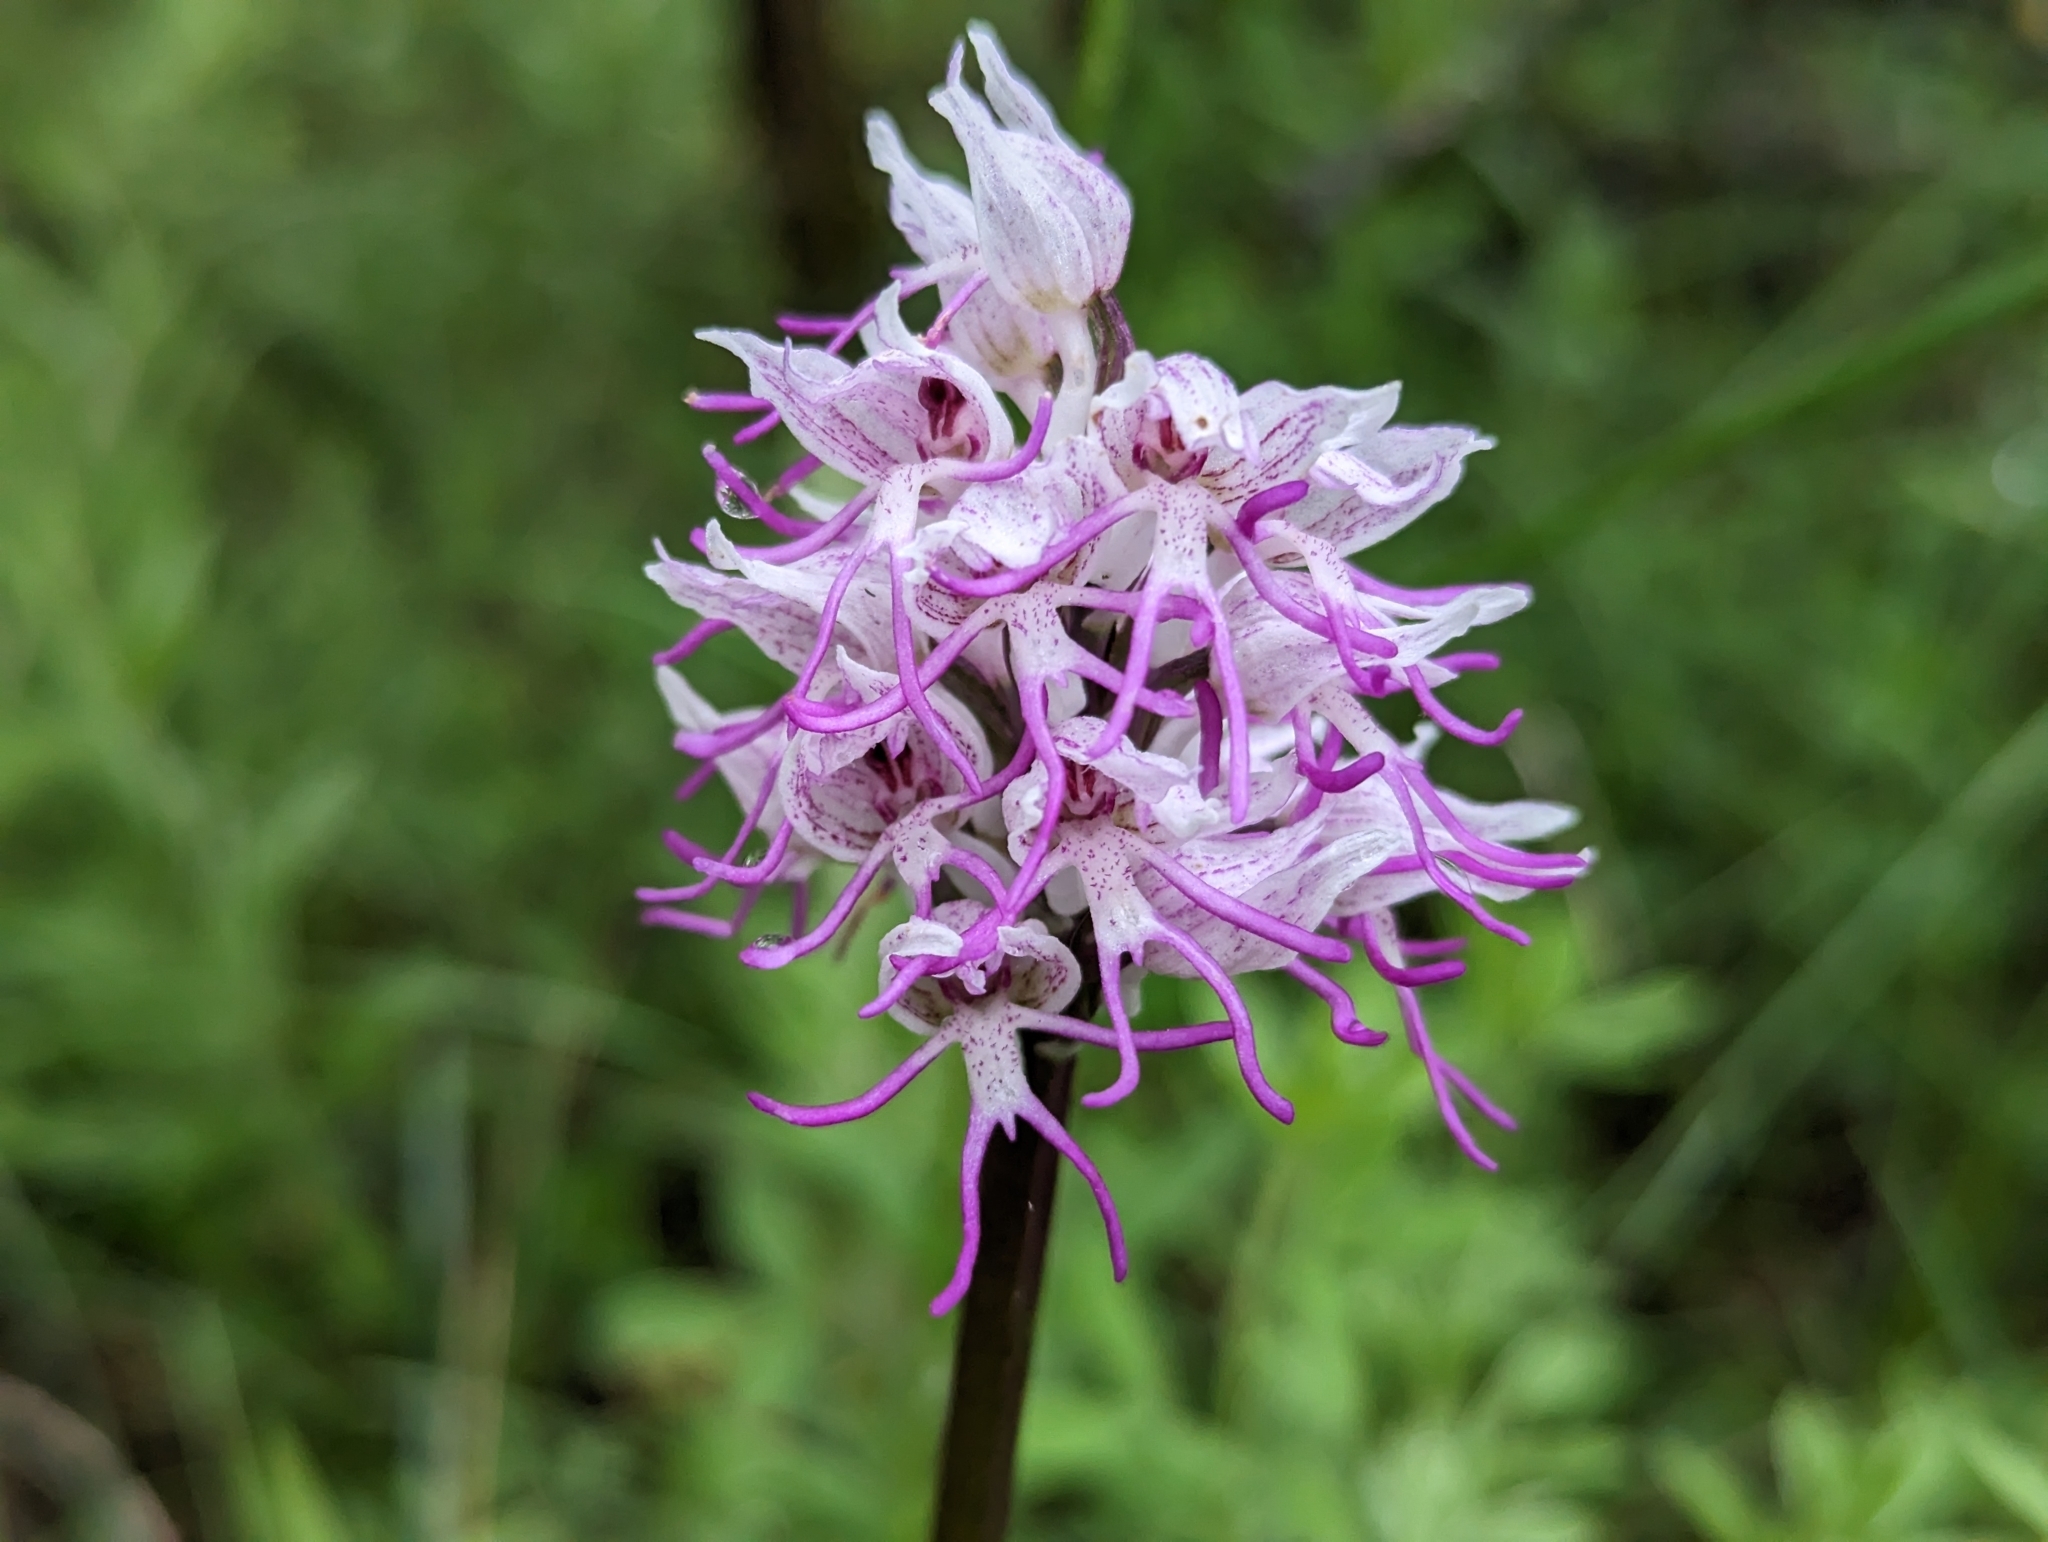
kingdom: Plantae
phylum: Tracheophyta
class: Liliopsida
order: Asparagales
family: Orchidaceae
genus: Orchis
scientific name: Orchis simia
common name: Monkey orchid
